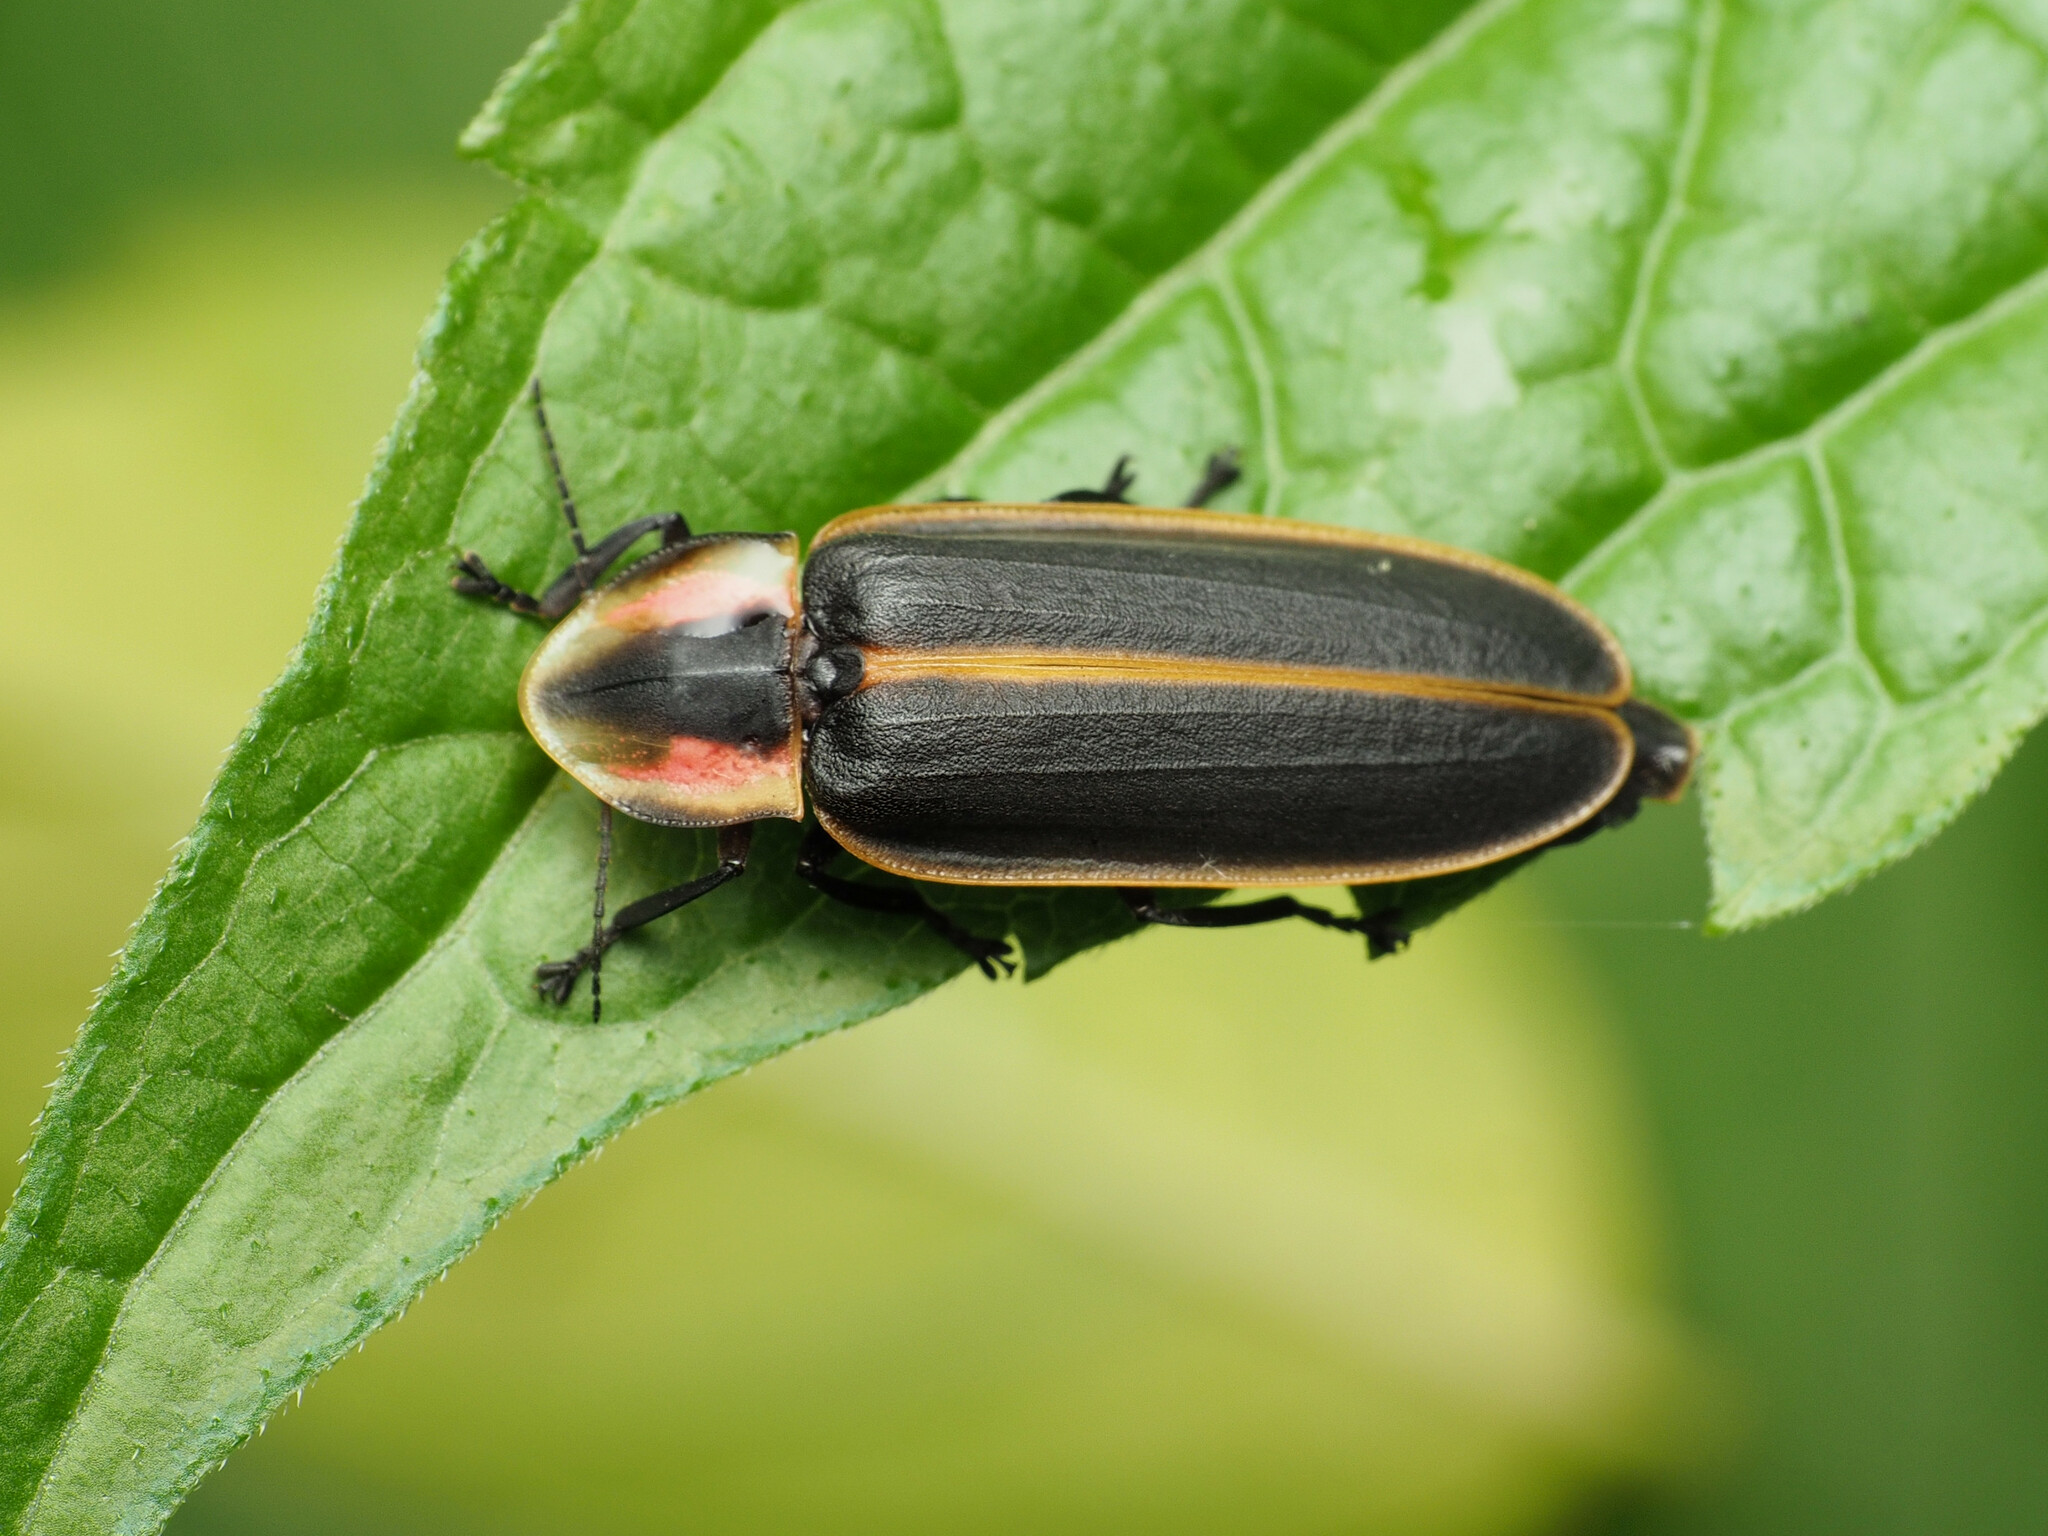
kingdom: Animalia
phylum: Arthropoda
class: Insecta
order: Coleoptera
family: Lampyridae
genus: Pyractomena
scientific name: Pyractomena borealis
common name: Northern firefly
